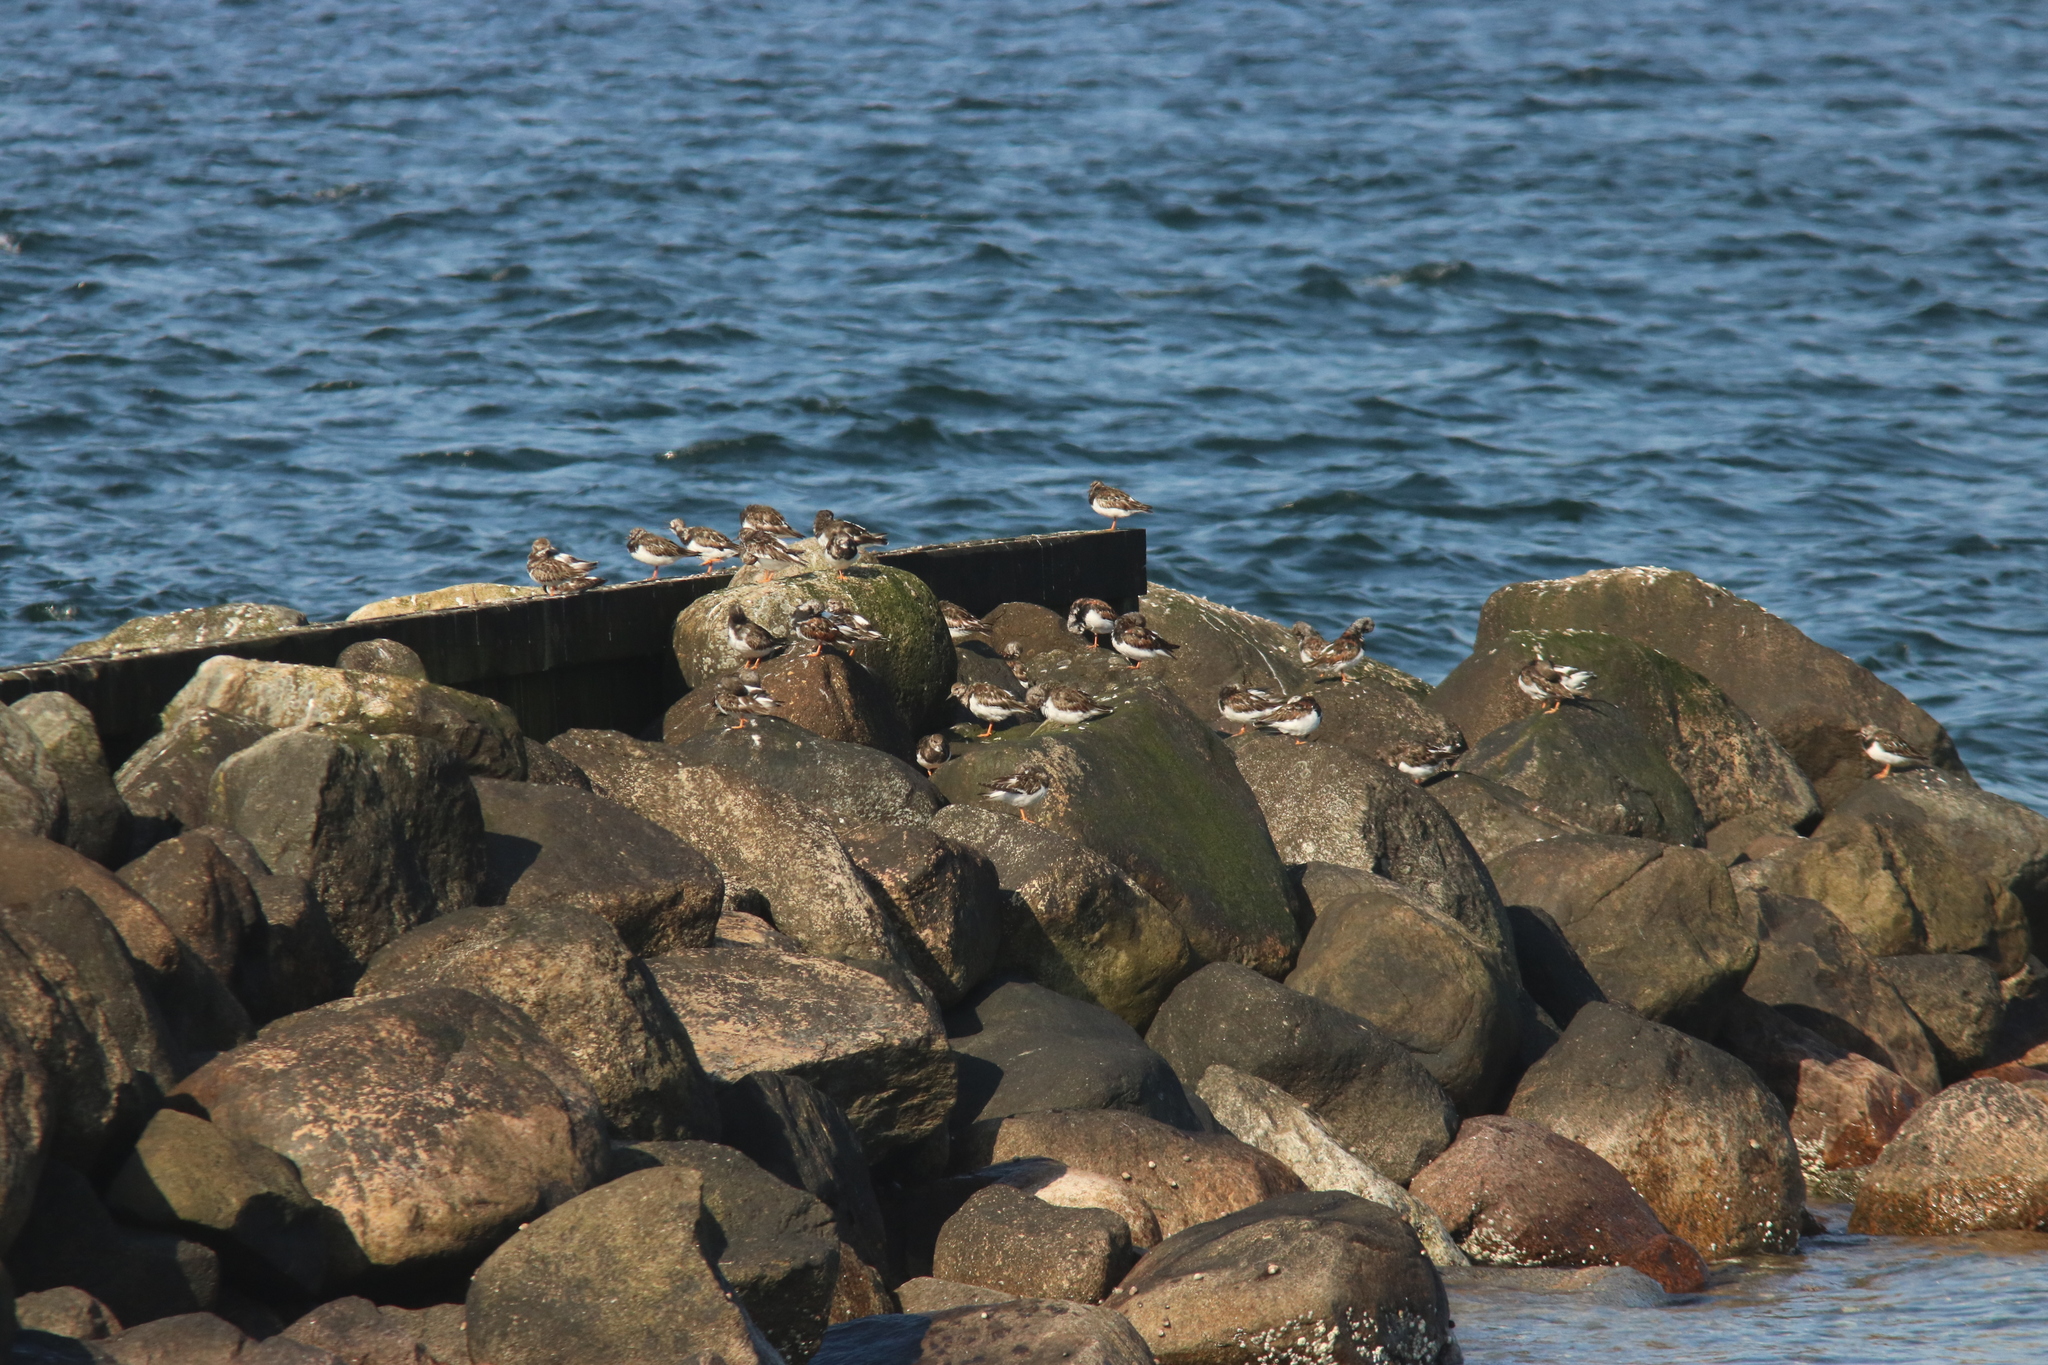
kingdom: Animalia
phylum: Chordata
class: Aves
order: Charadriiformes
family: Scolopacidae
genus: Arenaria
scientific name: Arenaria interpres
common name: Ruddy turnstone
